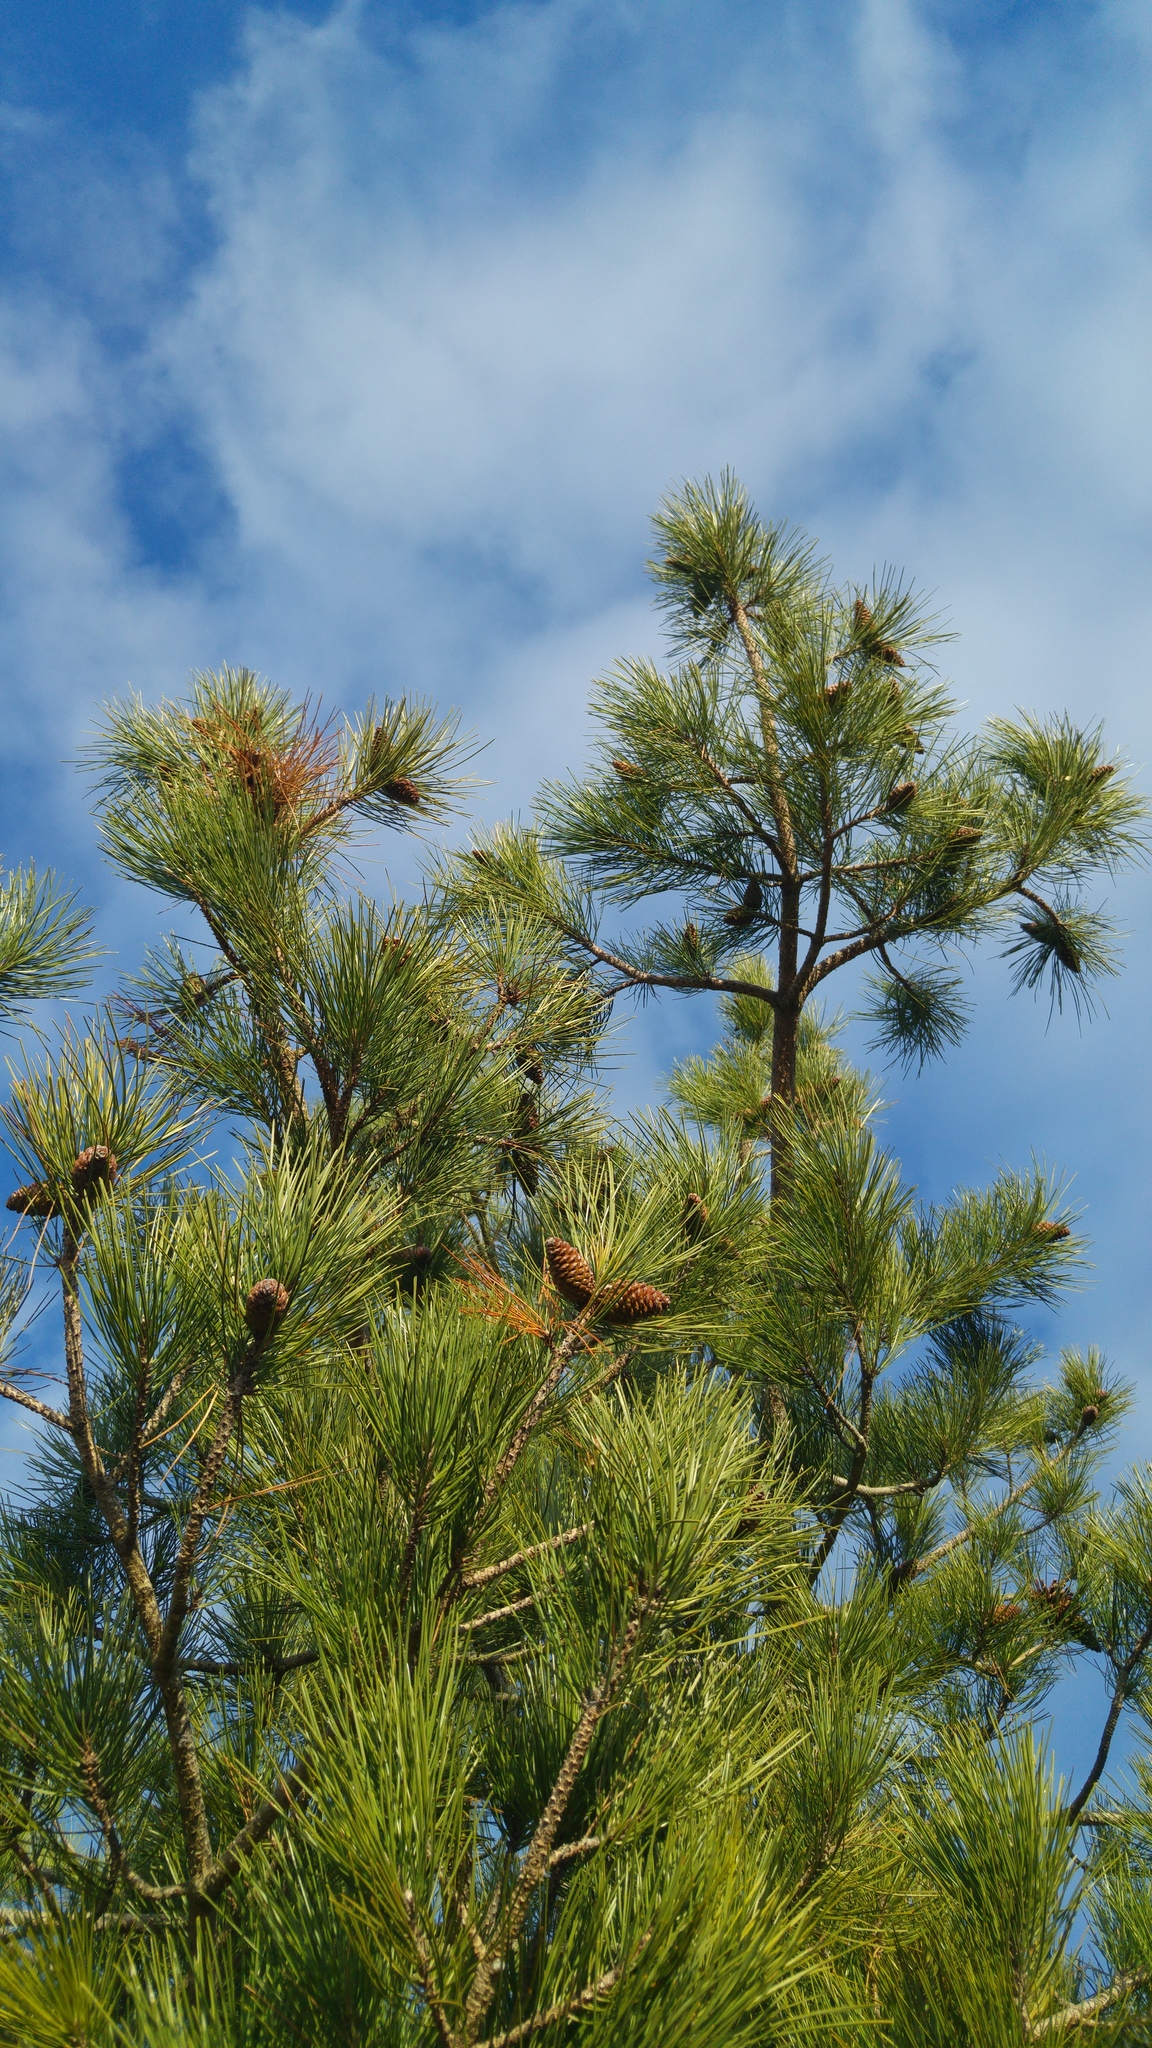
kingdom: Plantae
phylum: Tracheophyta
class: Pinopsida
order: Pinales
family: Pinaceae
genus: Pinus
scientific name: Pinus pinaster
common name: Maritime pine
